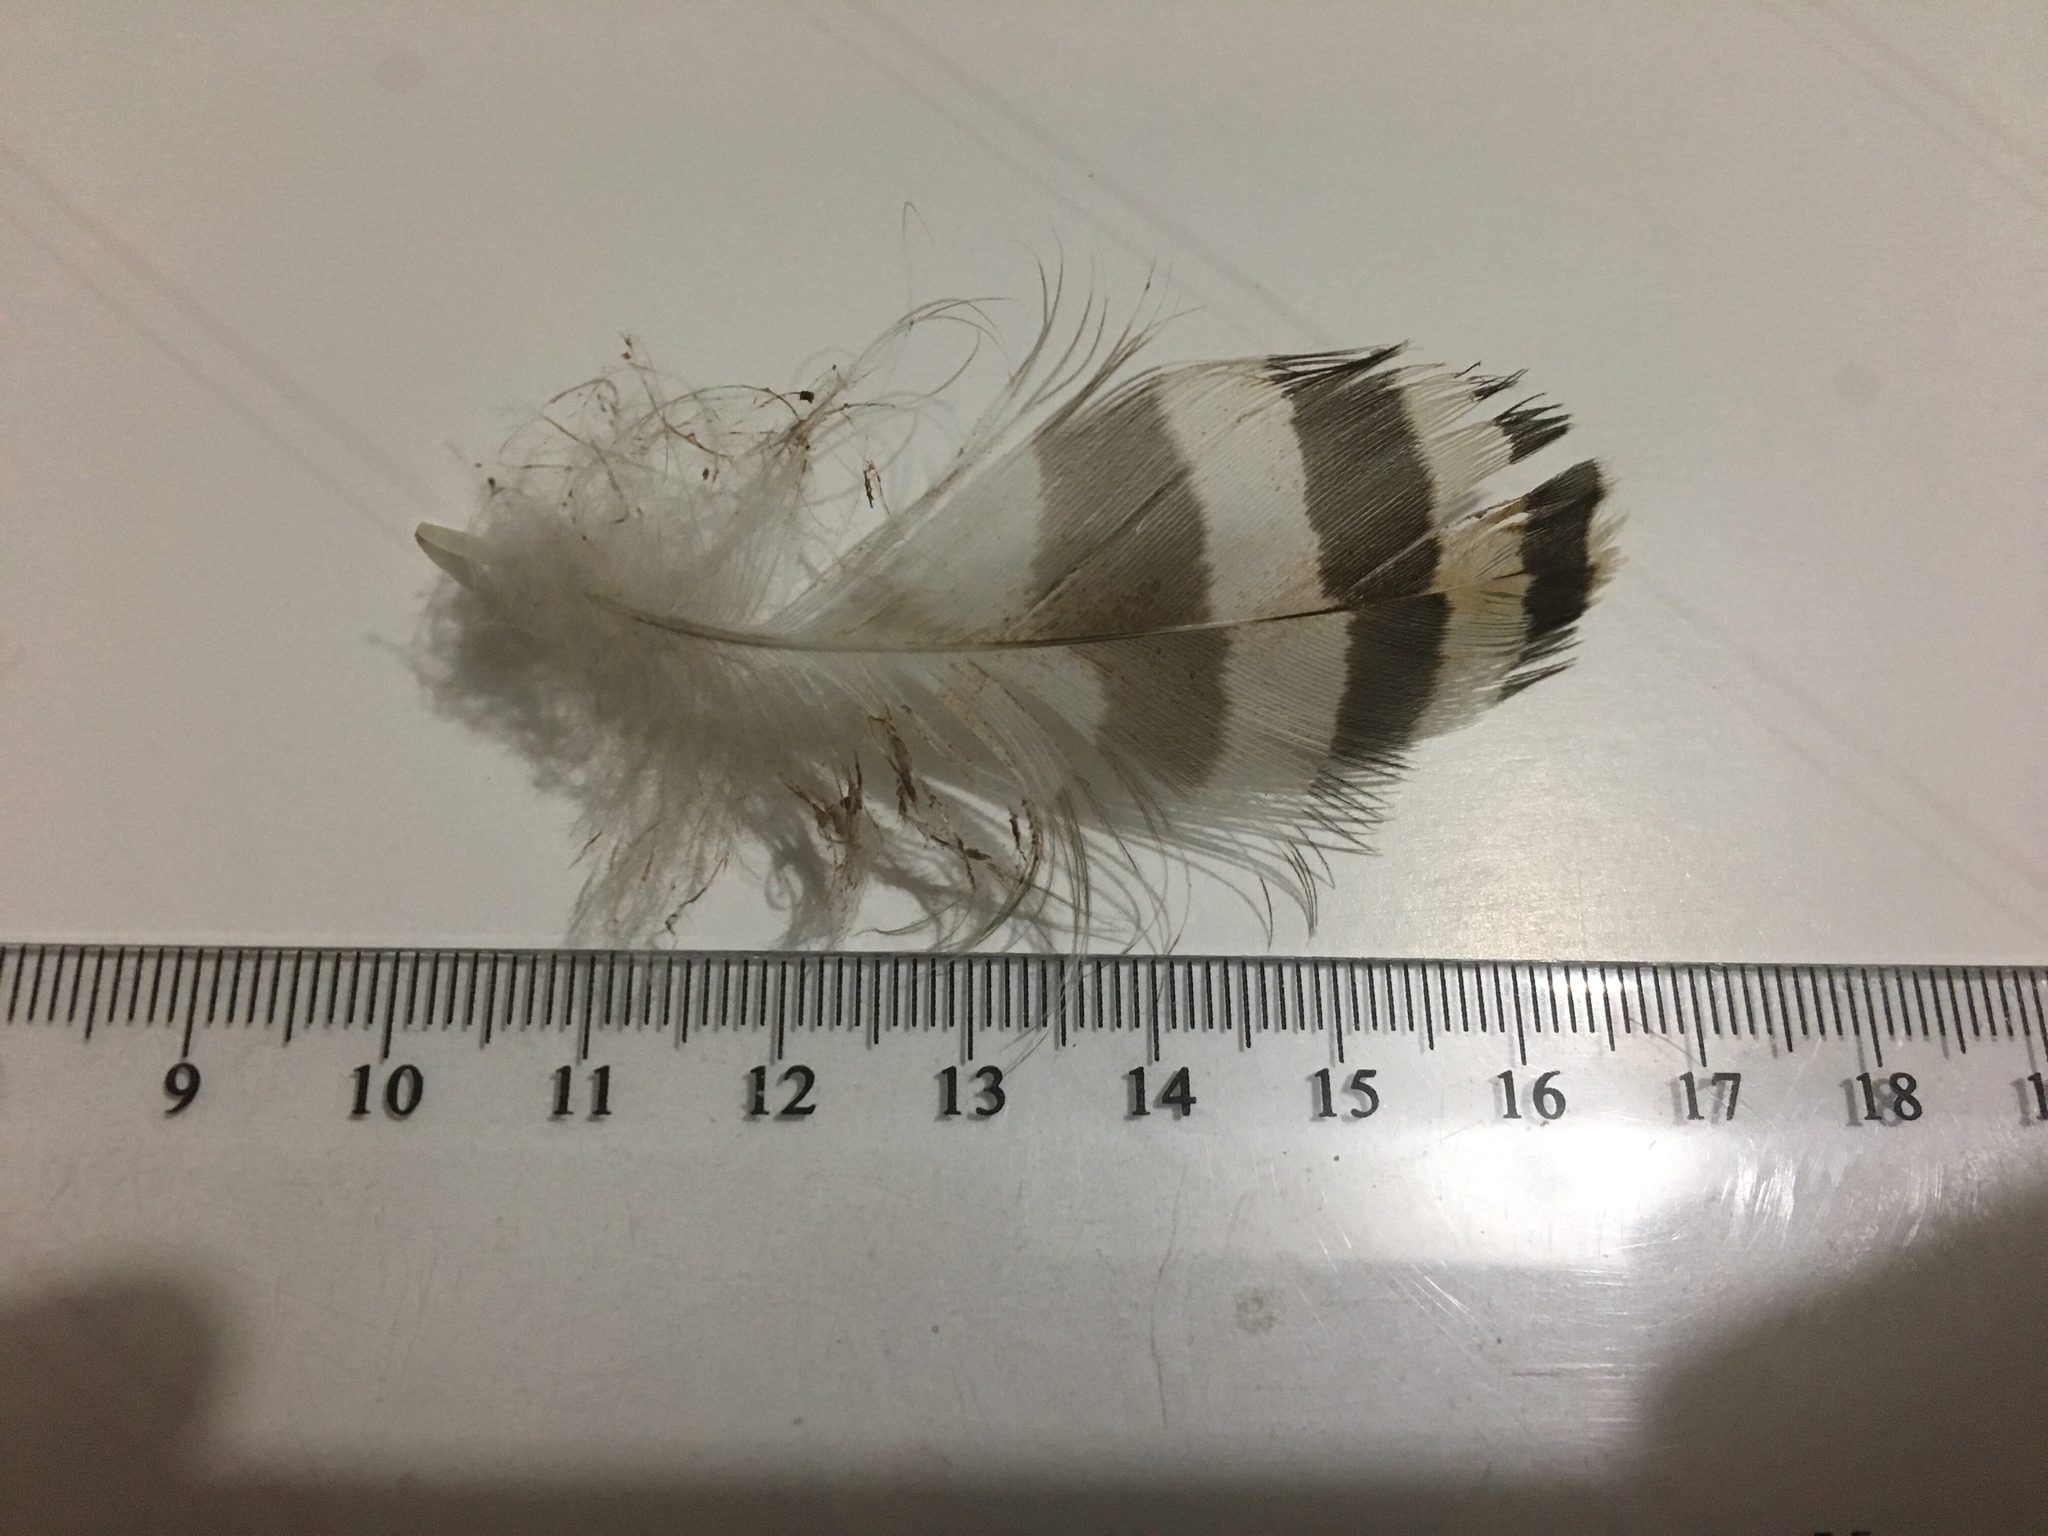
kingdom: Animalia
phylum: Chordata
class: Aves
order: Accipitriformes
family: Accipitridae
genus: Accipiter
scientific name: Accipiter fasciatus
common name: Brown goshawk
